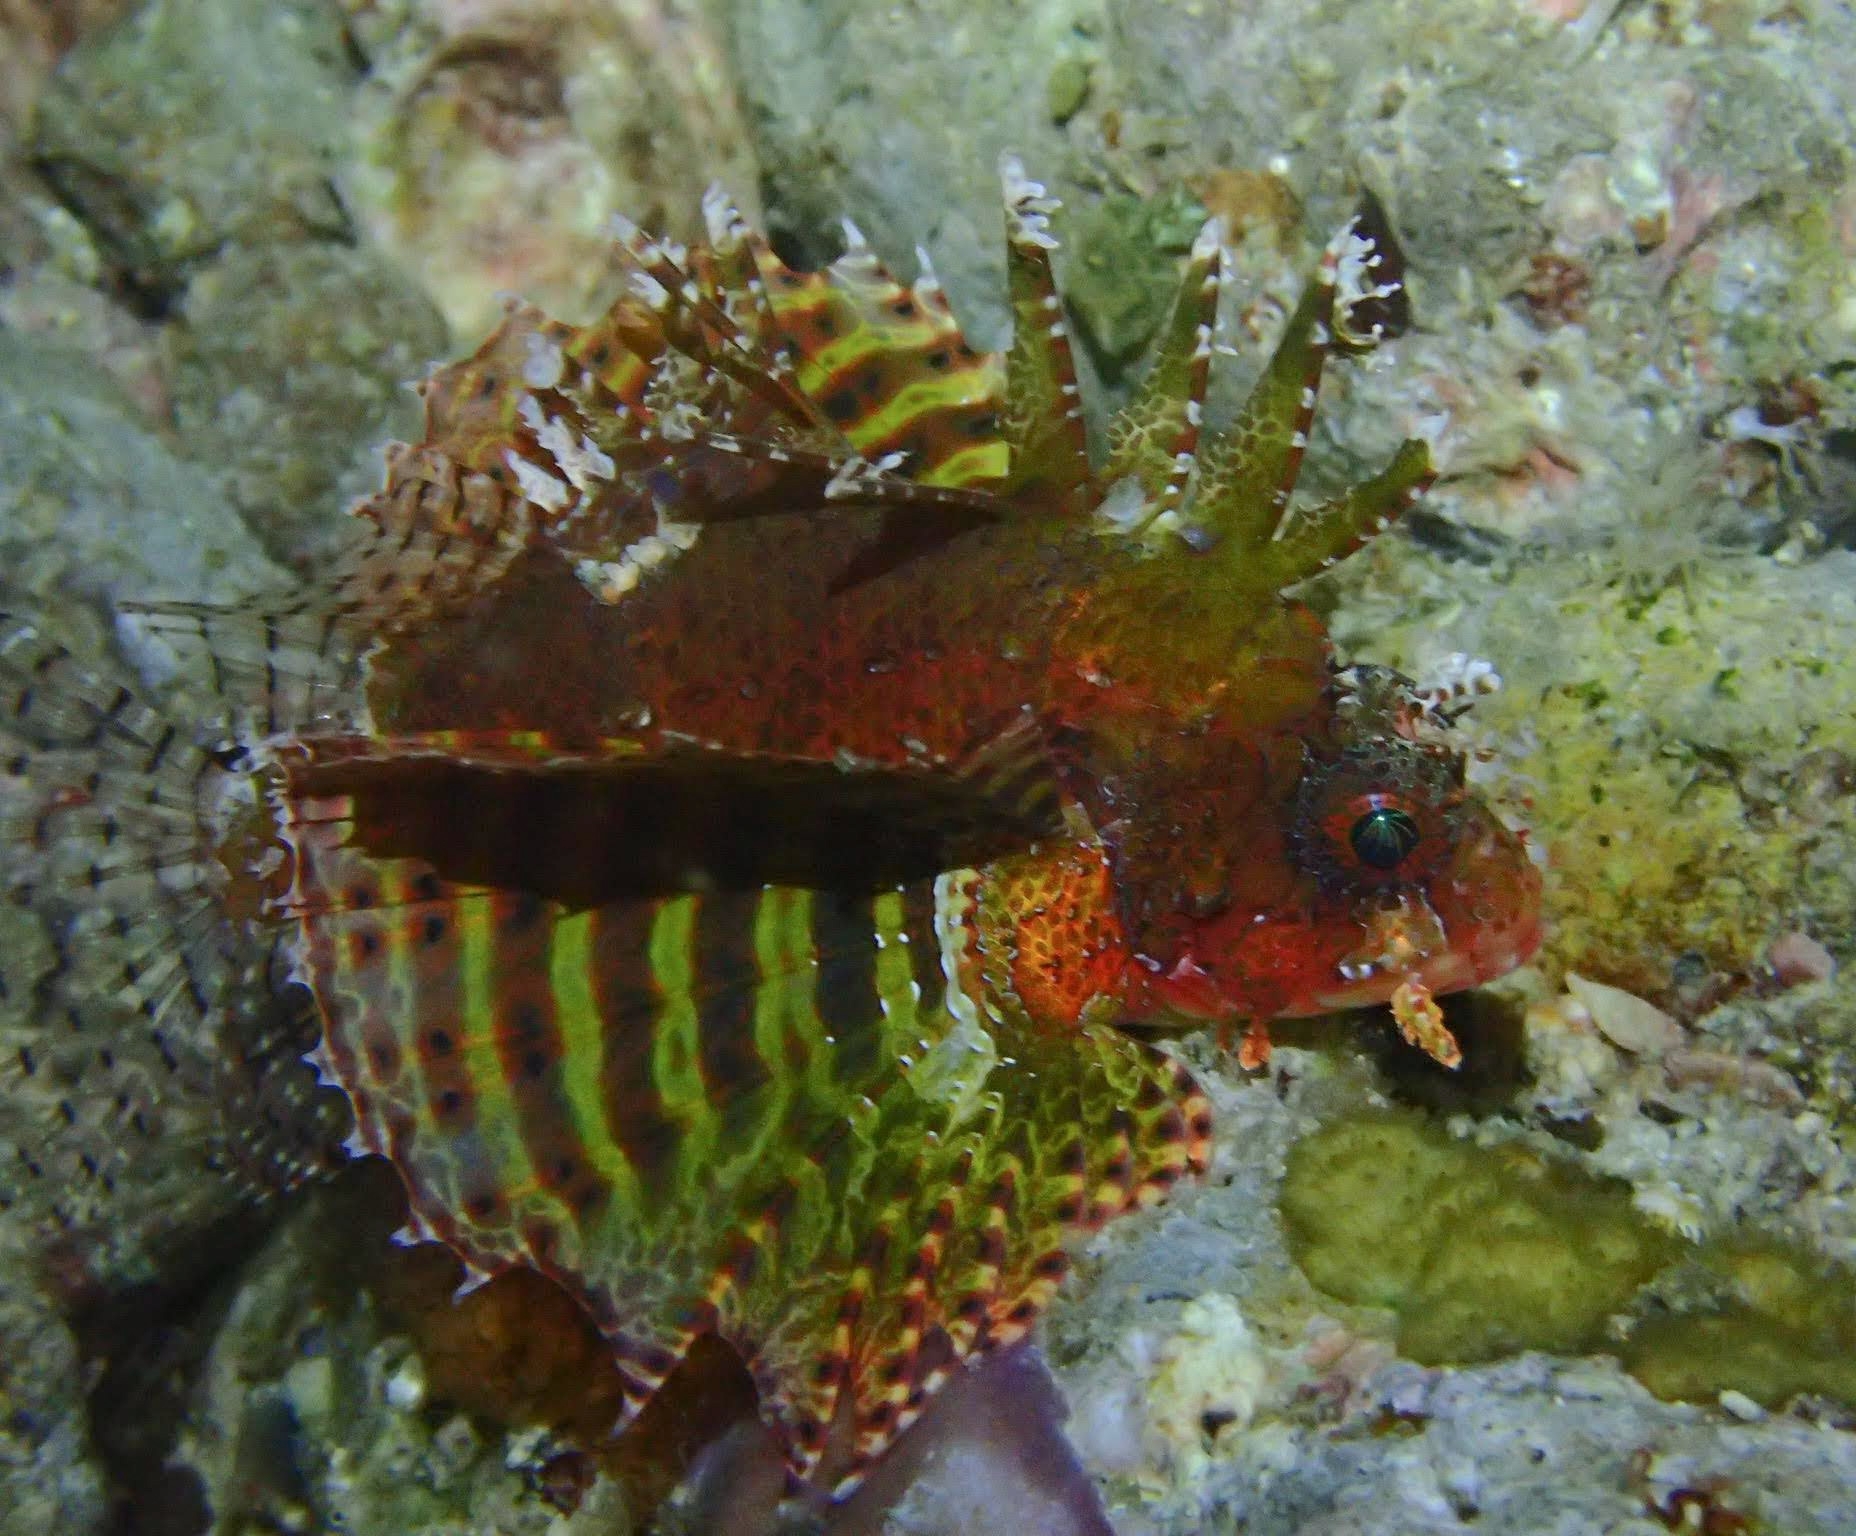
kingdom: Animalia
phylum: Chordata
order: Scorpaeniformes
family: Scorpaenidae
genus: Dendrochirus
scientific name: Dendrochirus brachypterus
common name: Shortfin turkeyfish
